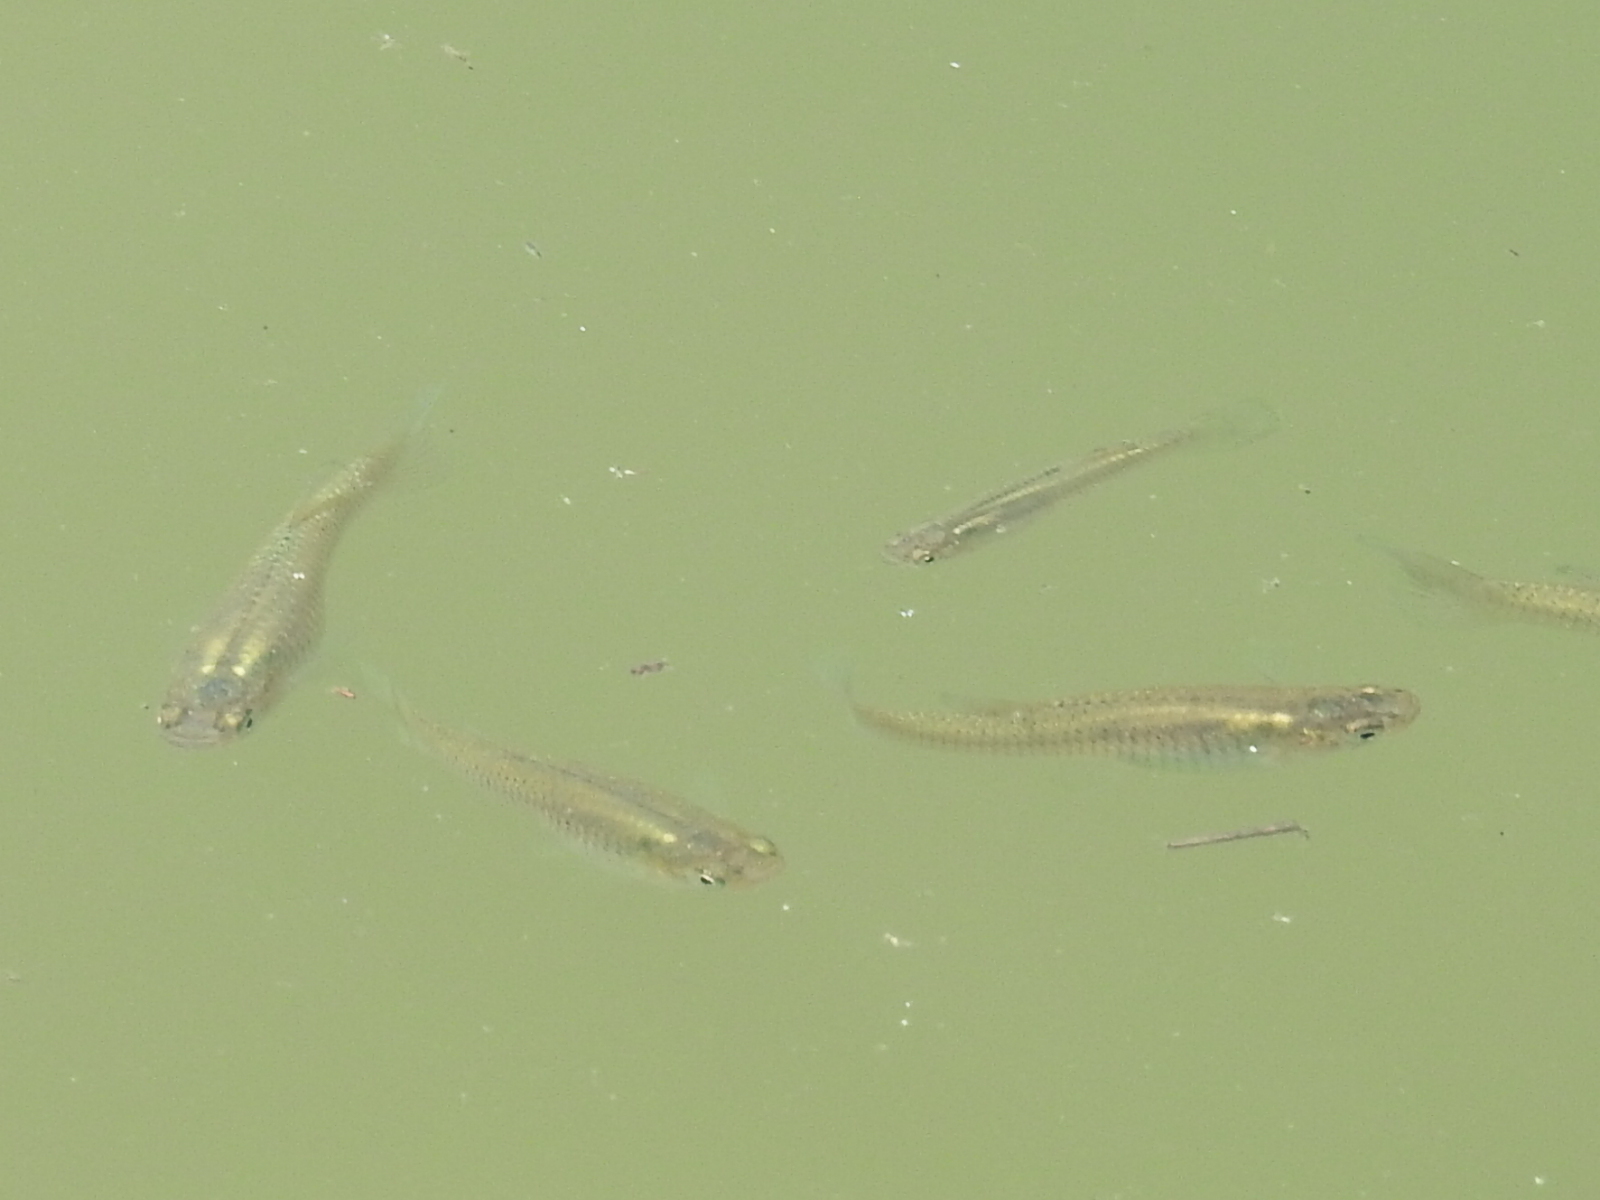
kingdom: Animalia
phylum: Chordata
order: Cyprinodontiformes
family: Poeciliidae
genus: Gambusia
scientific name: Gambusia affinis
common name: Mosquitofish
